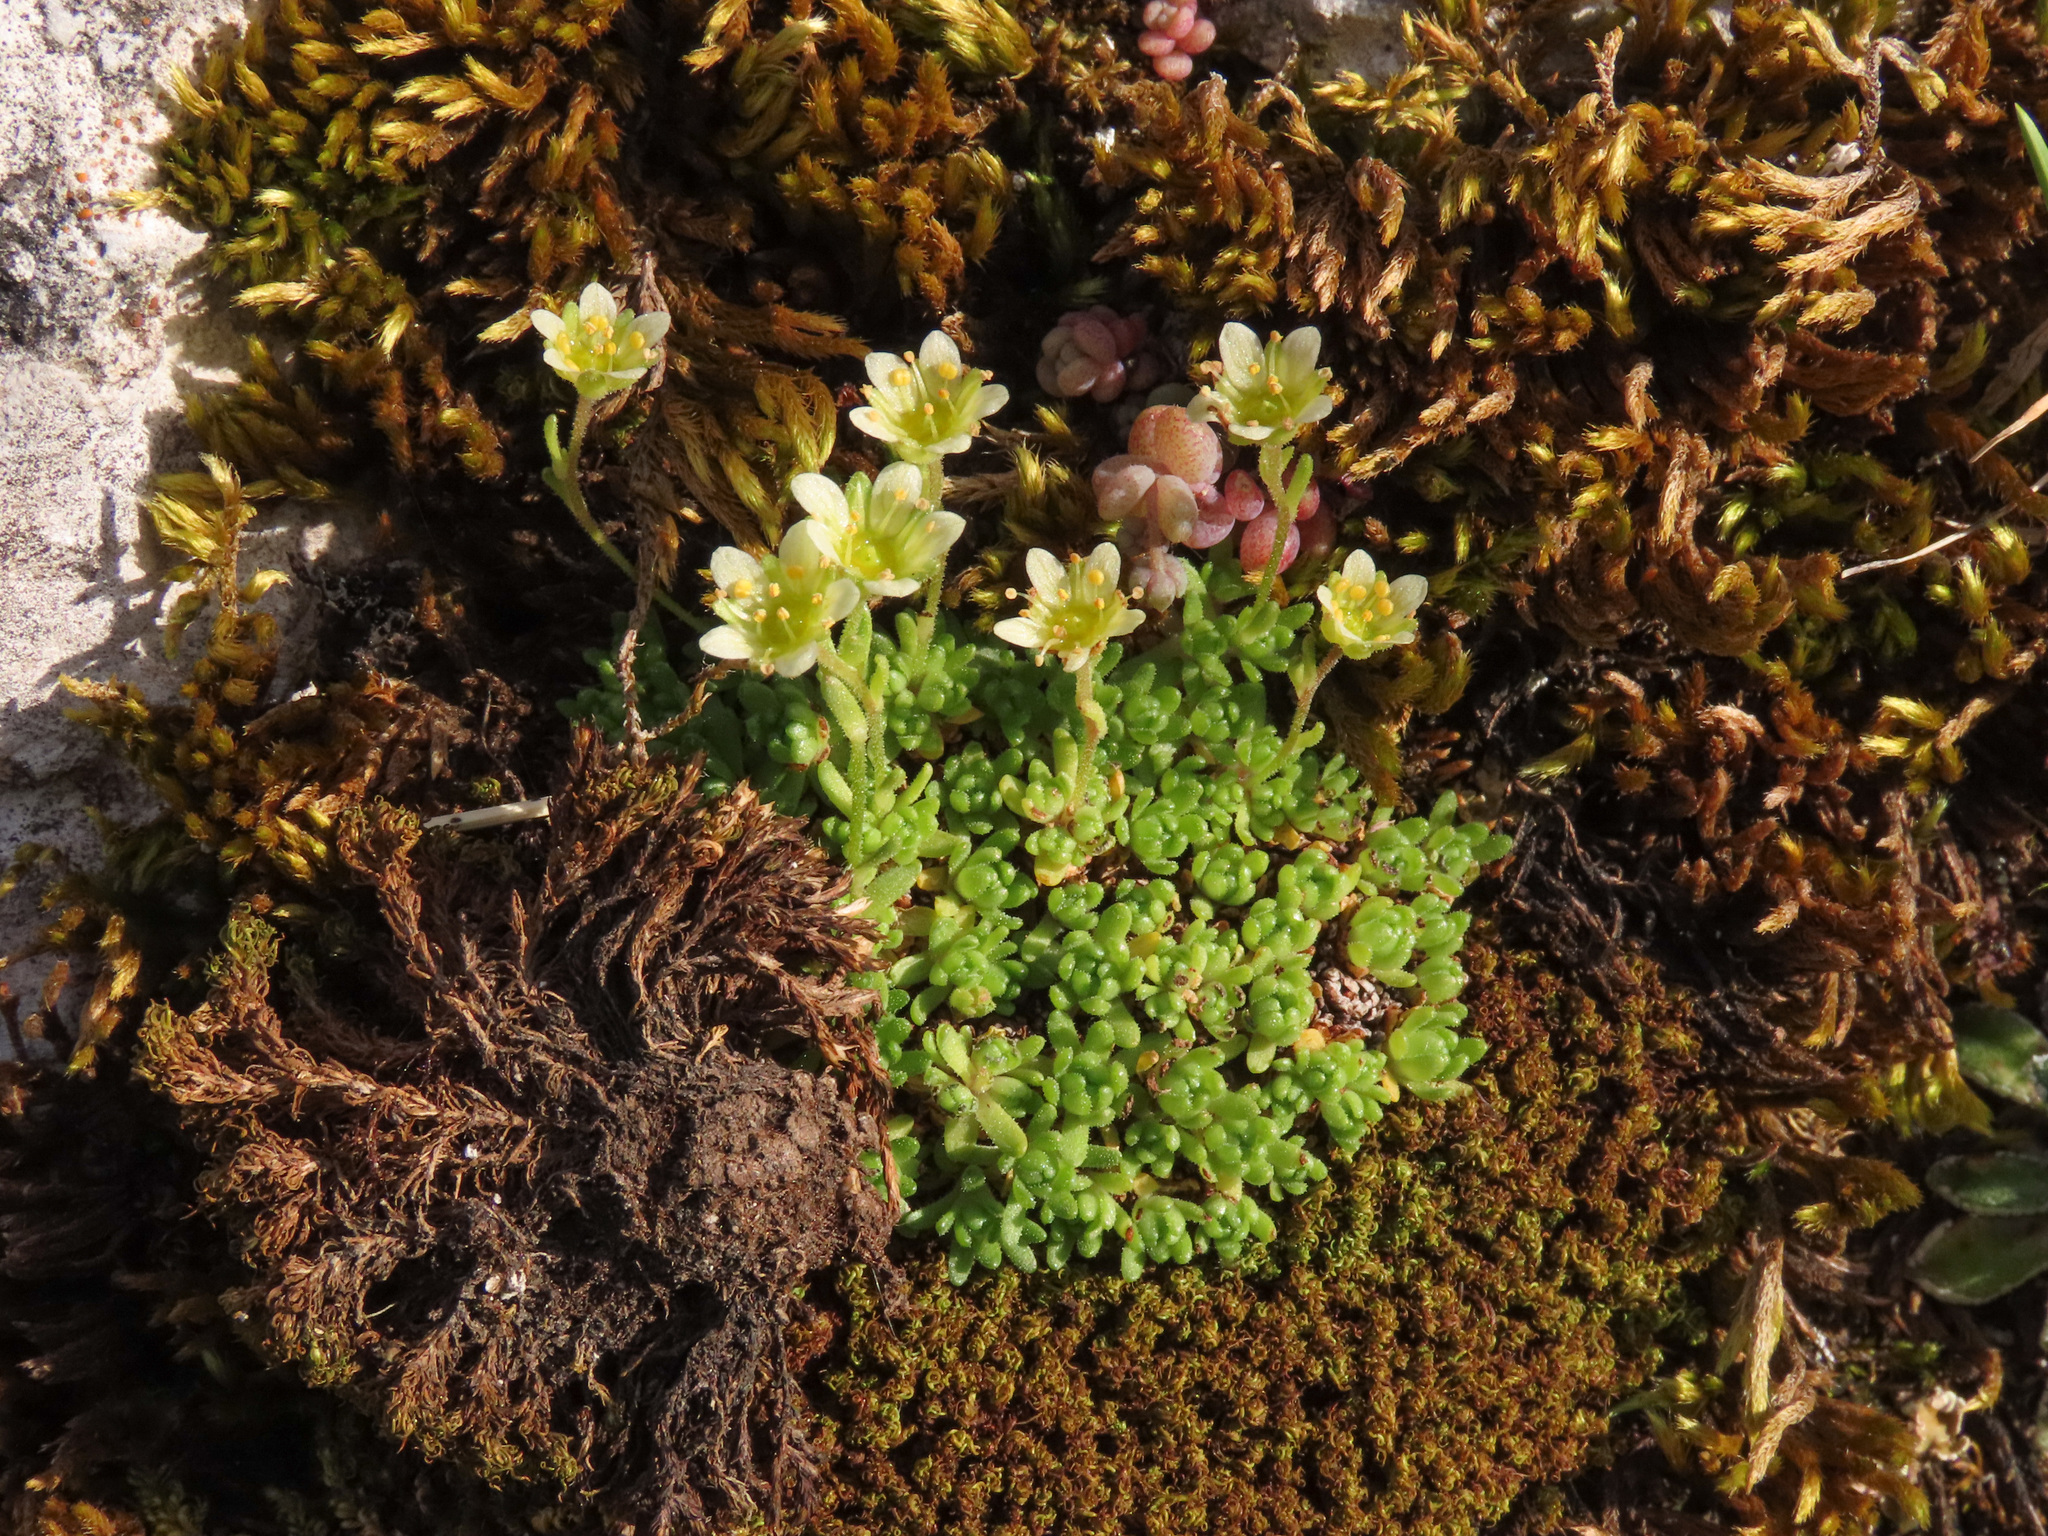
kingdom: Plantae
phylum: Tracheophyta
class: Magnoliopsida
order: Saxifragales
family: Saxifragaceae
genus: Saxifraga
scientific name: Saxifraga exarata
